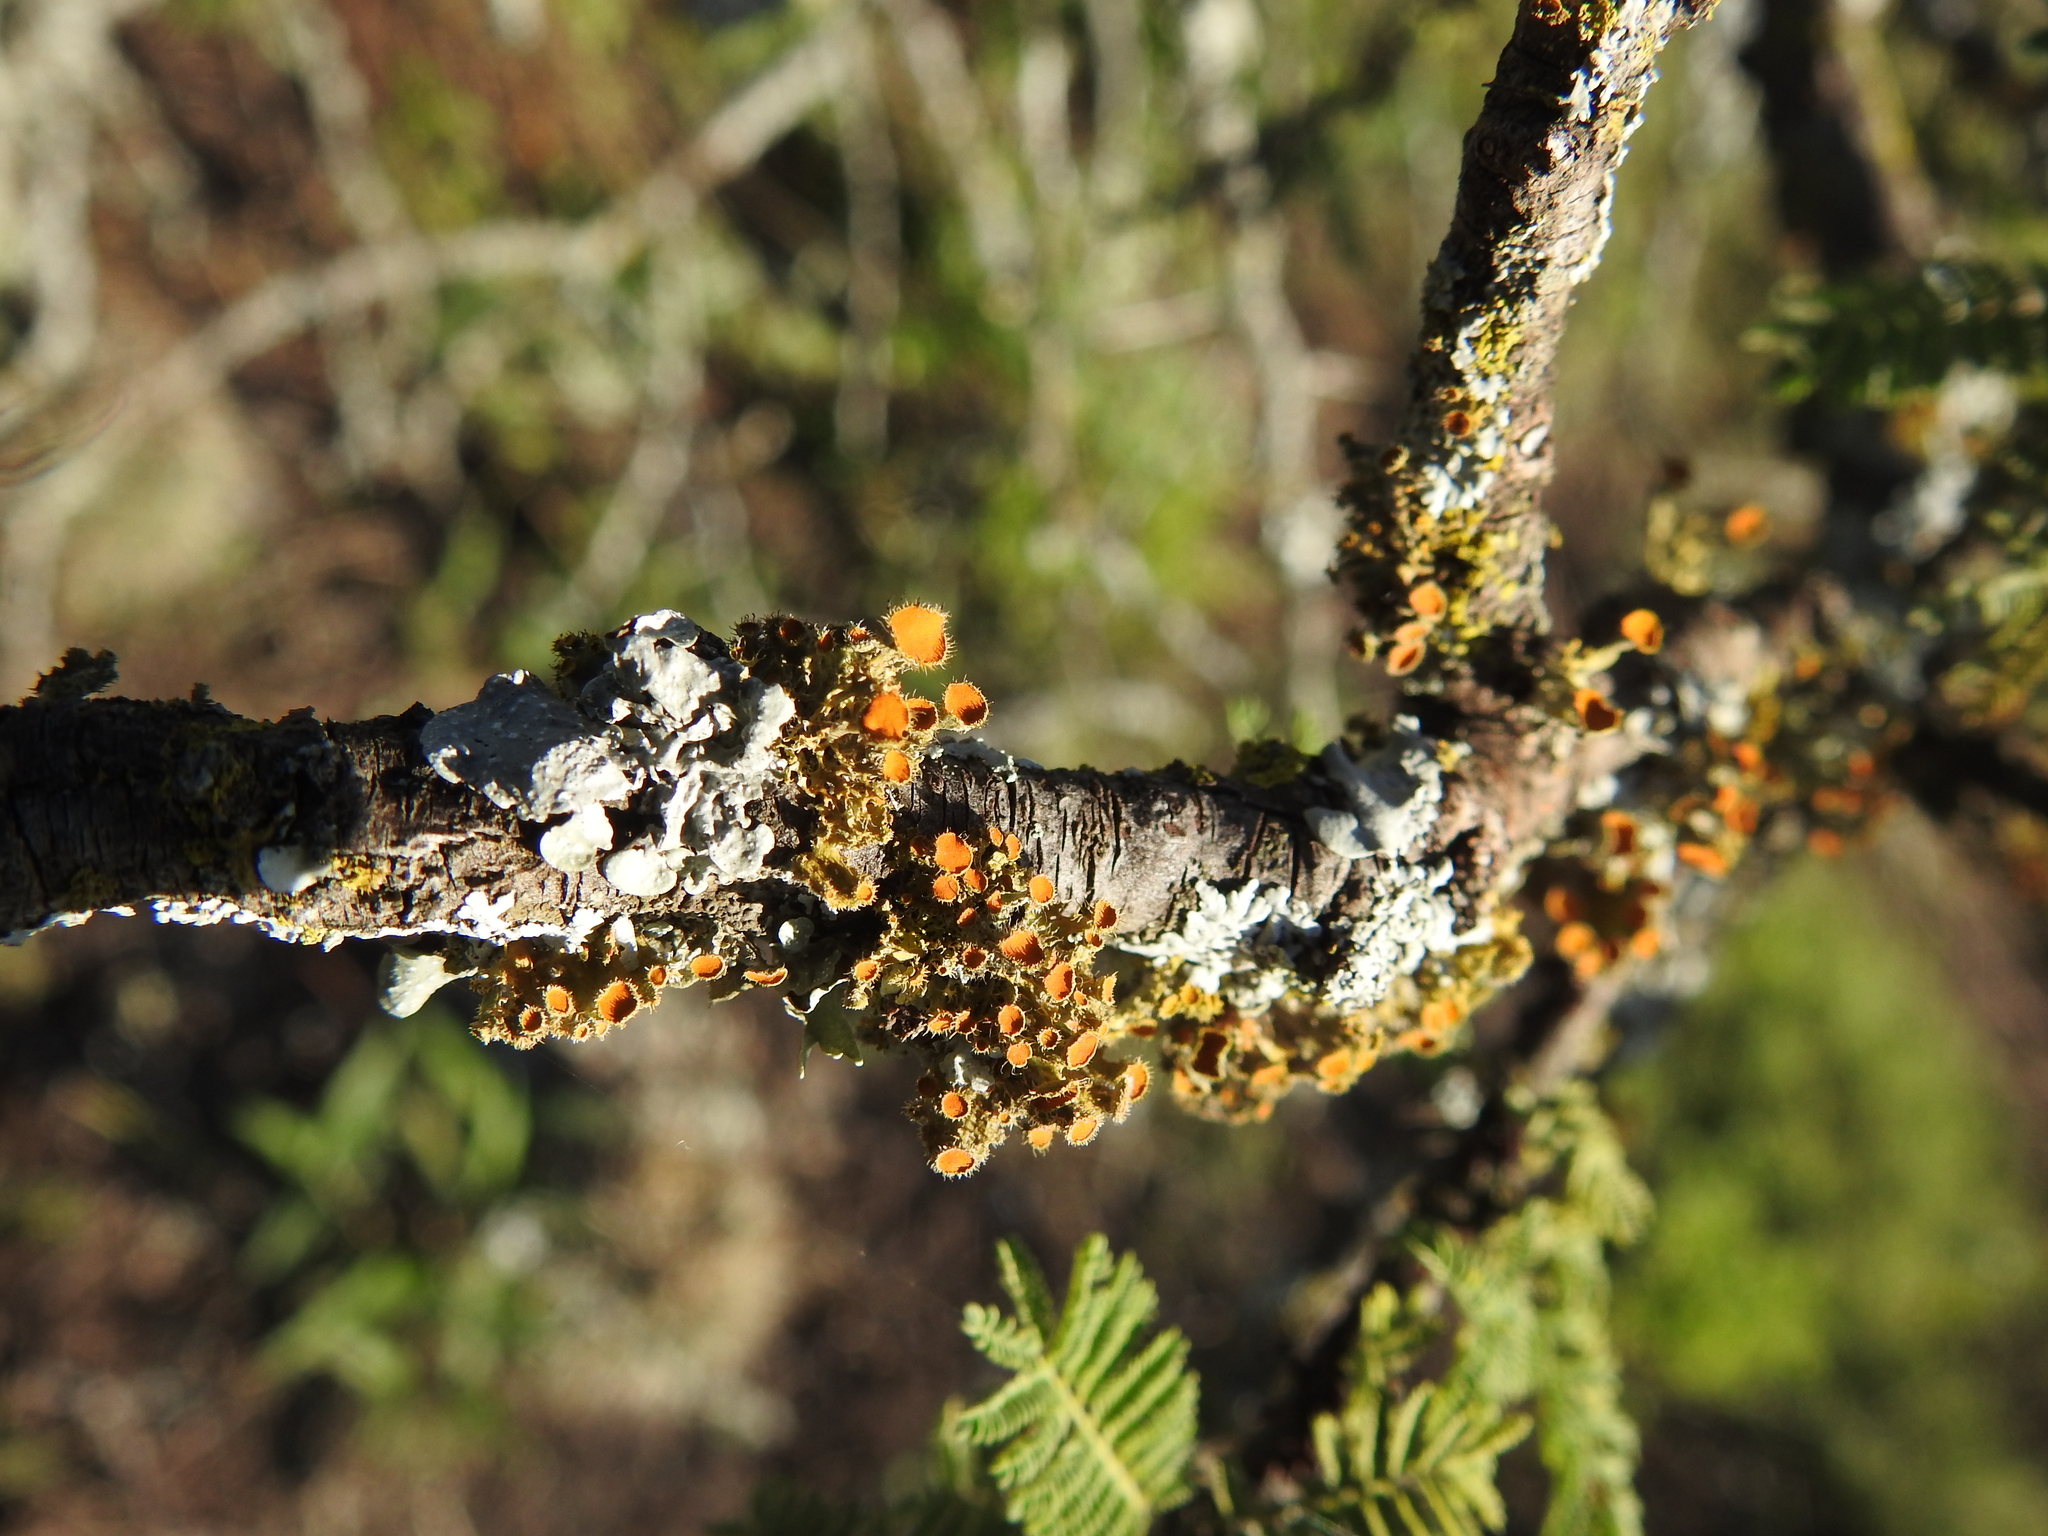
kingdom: Fungi
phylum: Ascomycota
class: Lecanoromycetes
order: Teloschistales
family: Teloschistaceae
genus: Niorma
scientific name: Niorma chrysophthalma
